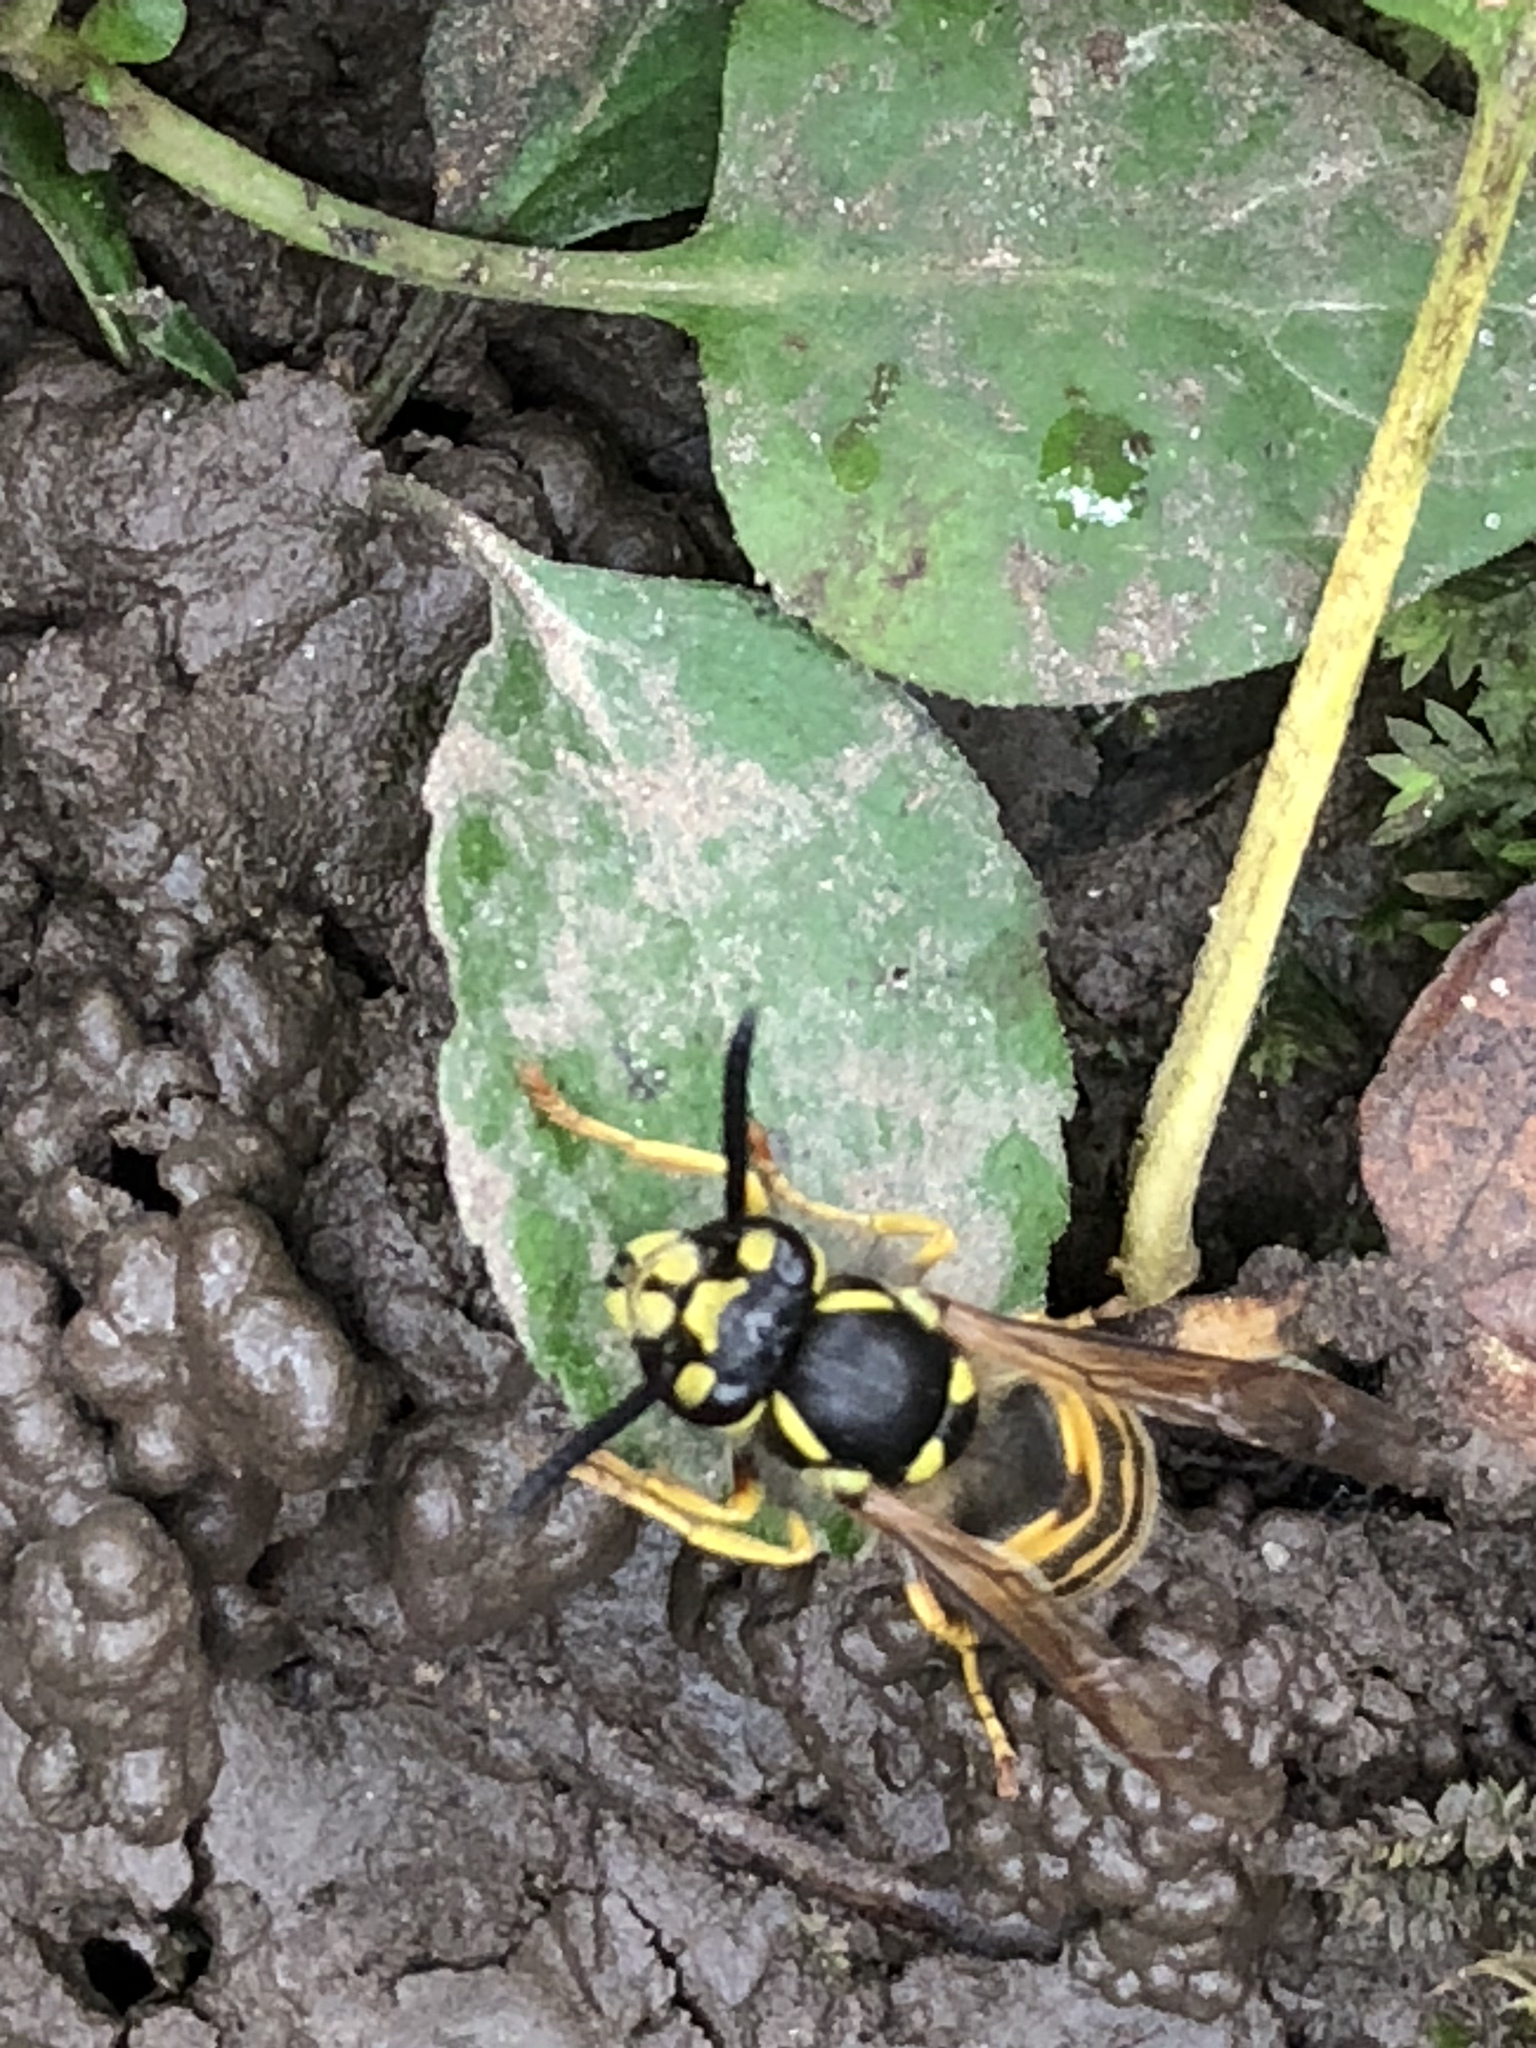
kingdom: Animalia
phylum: Arthropoda
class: Insecta
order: Hymenoptera
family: Vespidae
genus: Vespula
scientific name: Vespula germanica
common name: German wasp
